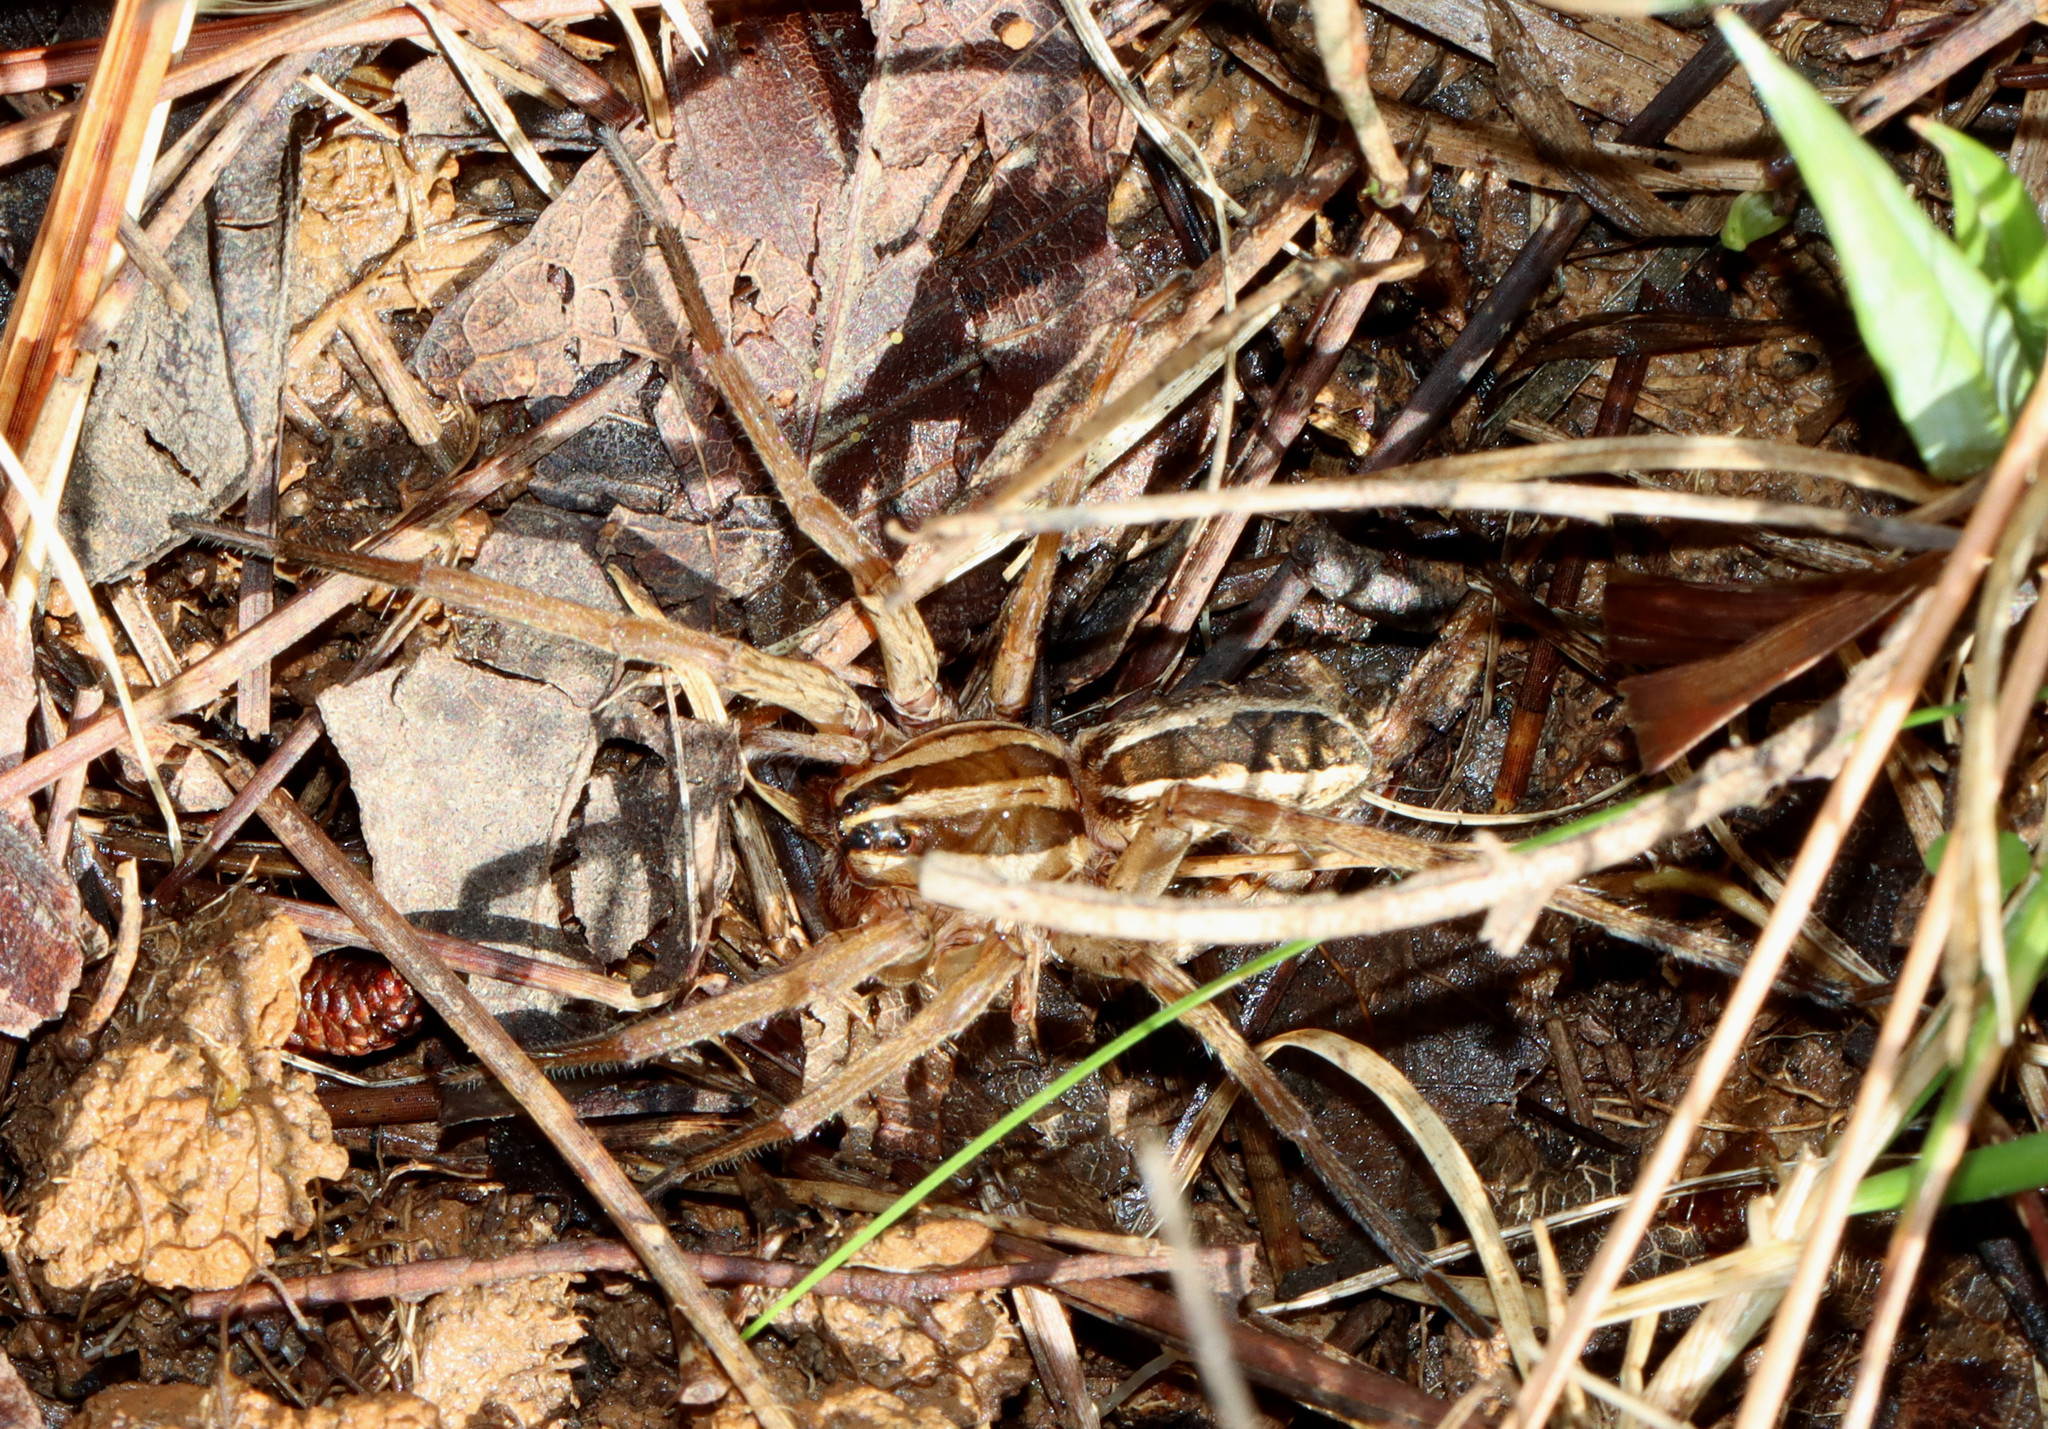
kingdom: Animalia
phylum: Arthropoda
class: Arachnida
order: Araneae
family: Lycosidae
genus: Rabidosa
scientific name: Rabidosa rabida
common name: Rabid wolf spider
